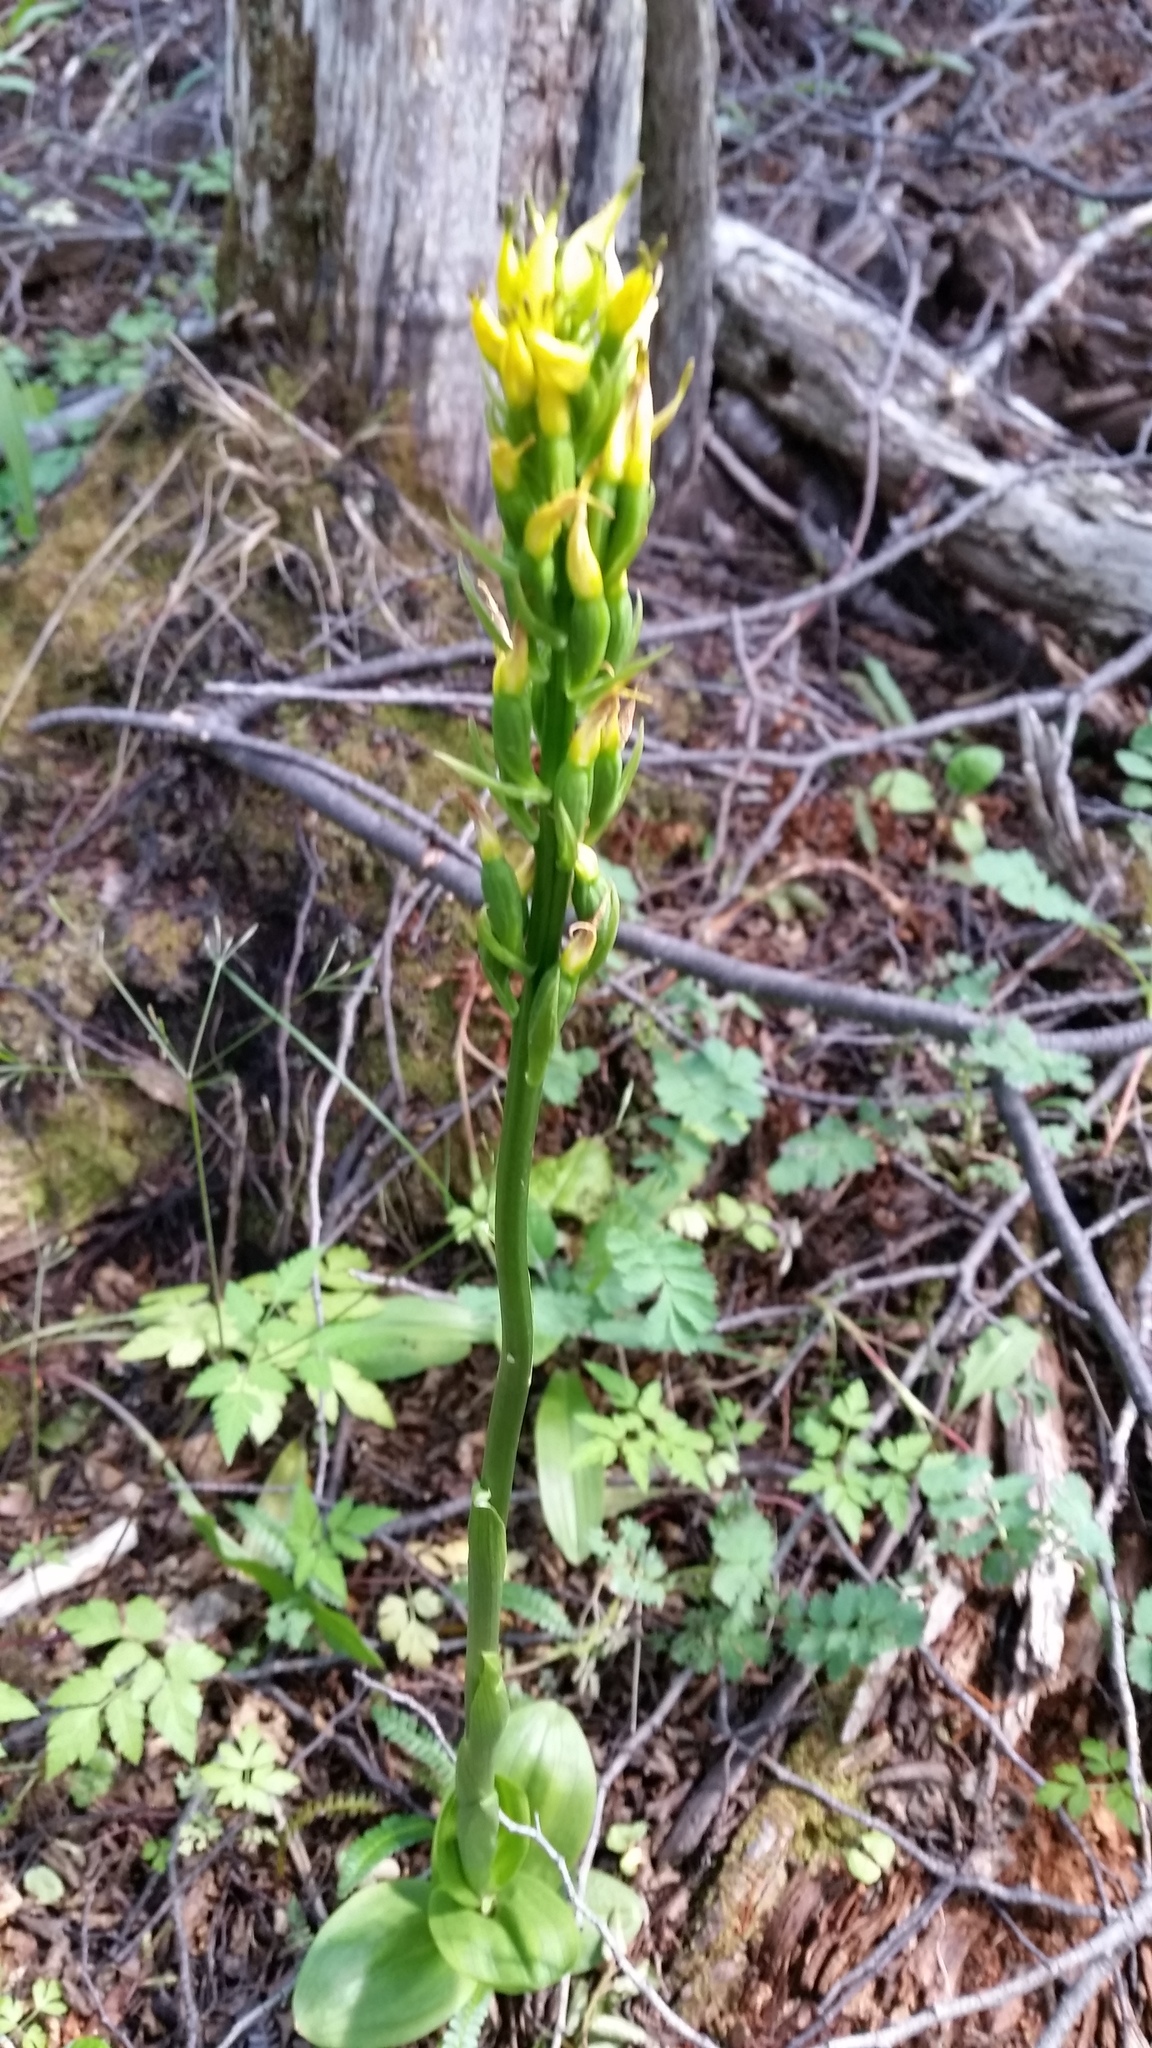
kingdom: Plantae
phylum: Tracheophyta
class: Liliopsida
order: Asparagales
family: Orchidaceae
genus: Gavilea
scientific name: Gavilea lutea
